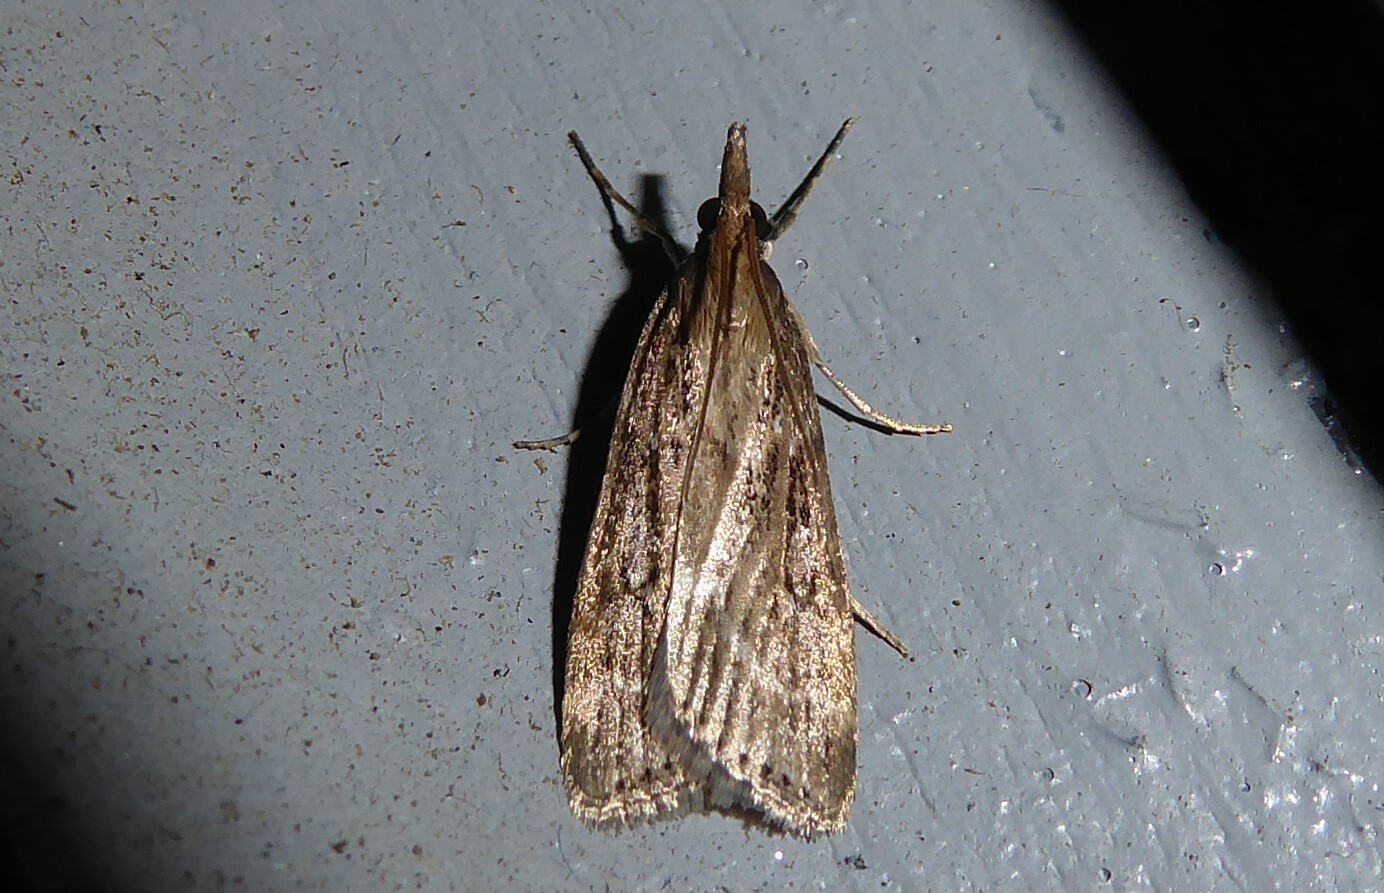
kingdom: Animalia
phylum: Arthropoda
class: Insecta
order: Lepidoptera
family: Crambidae
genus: Eudonia
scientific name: Eudonia octophora
